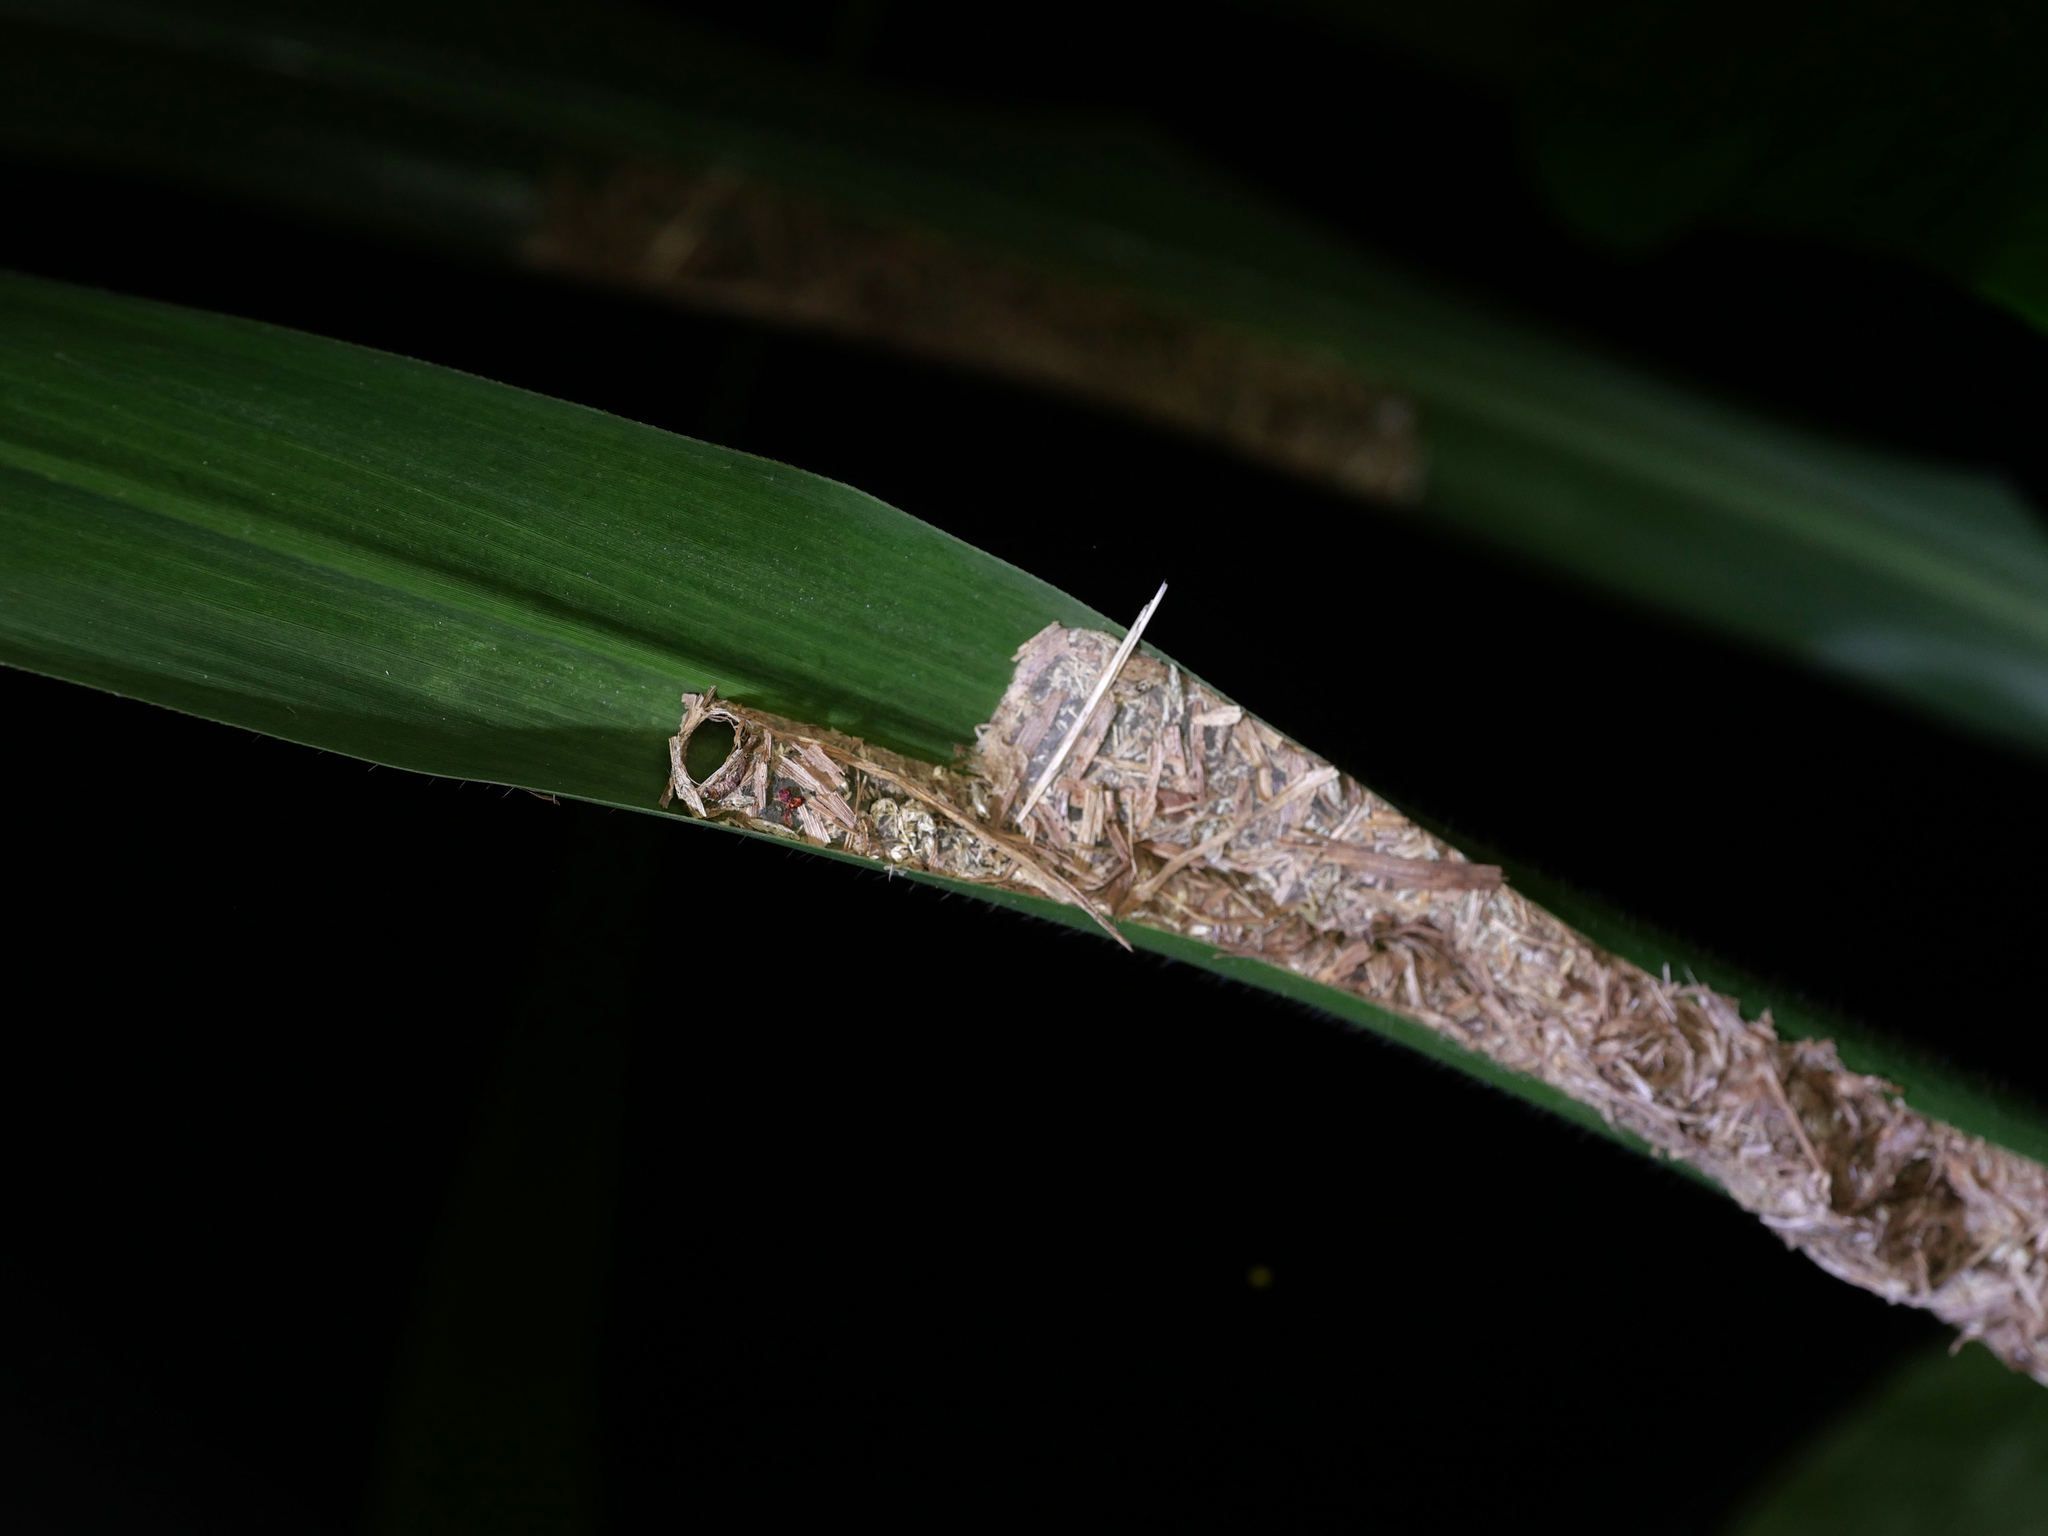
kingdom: Animalia
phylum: Arthropoda
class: Insecta
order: Hymenoptera
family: Formicidae
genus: Polyrhachis
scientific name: Polyrhachis dives
